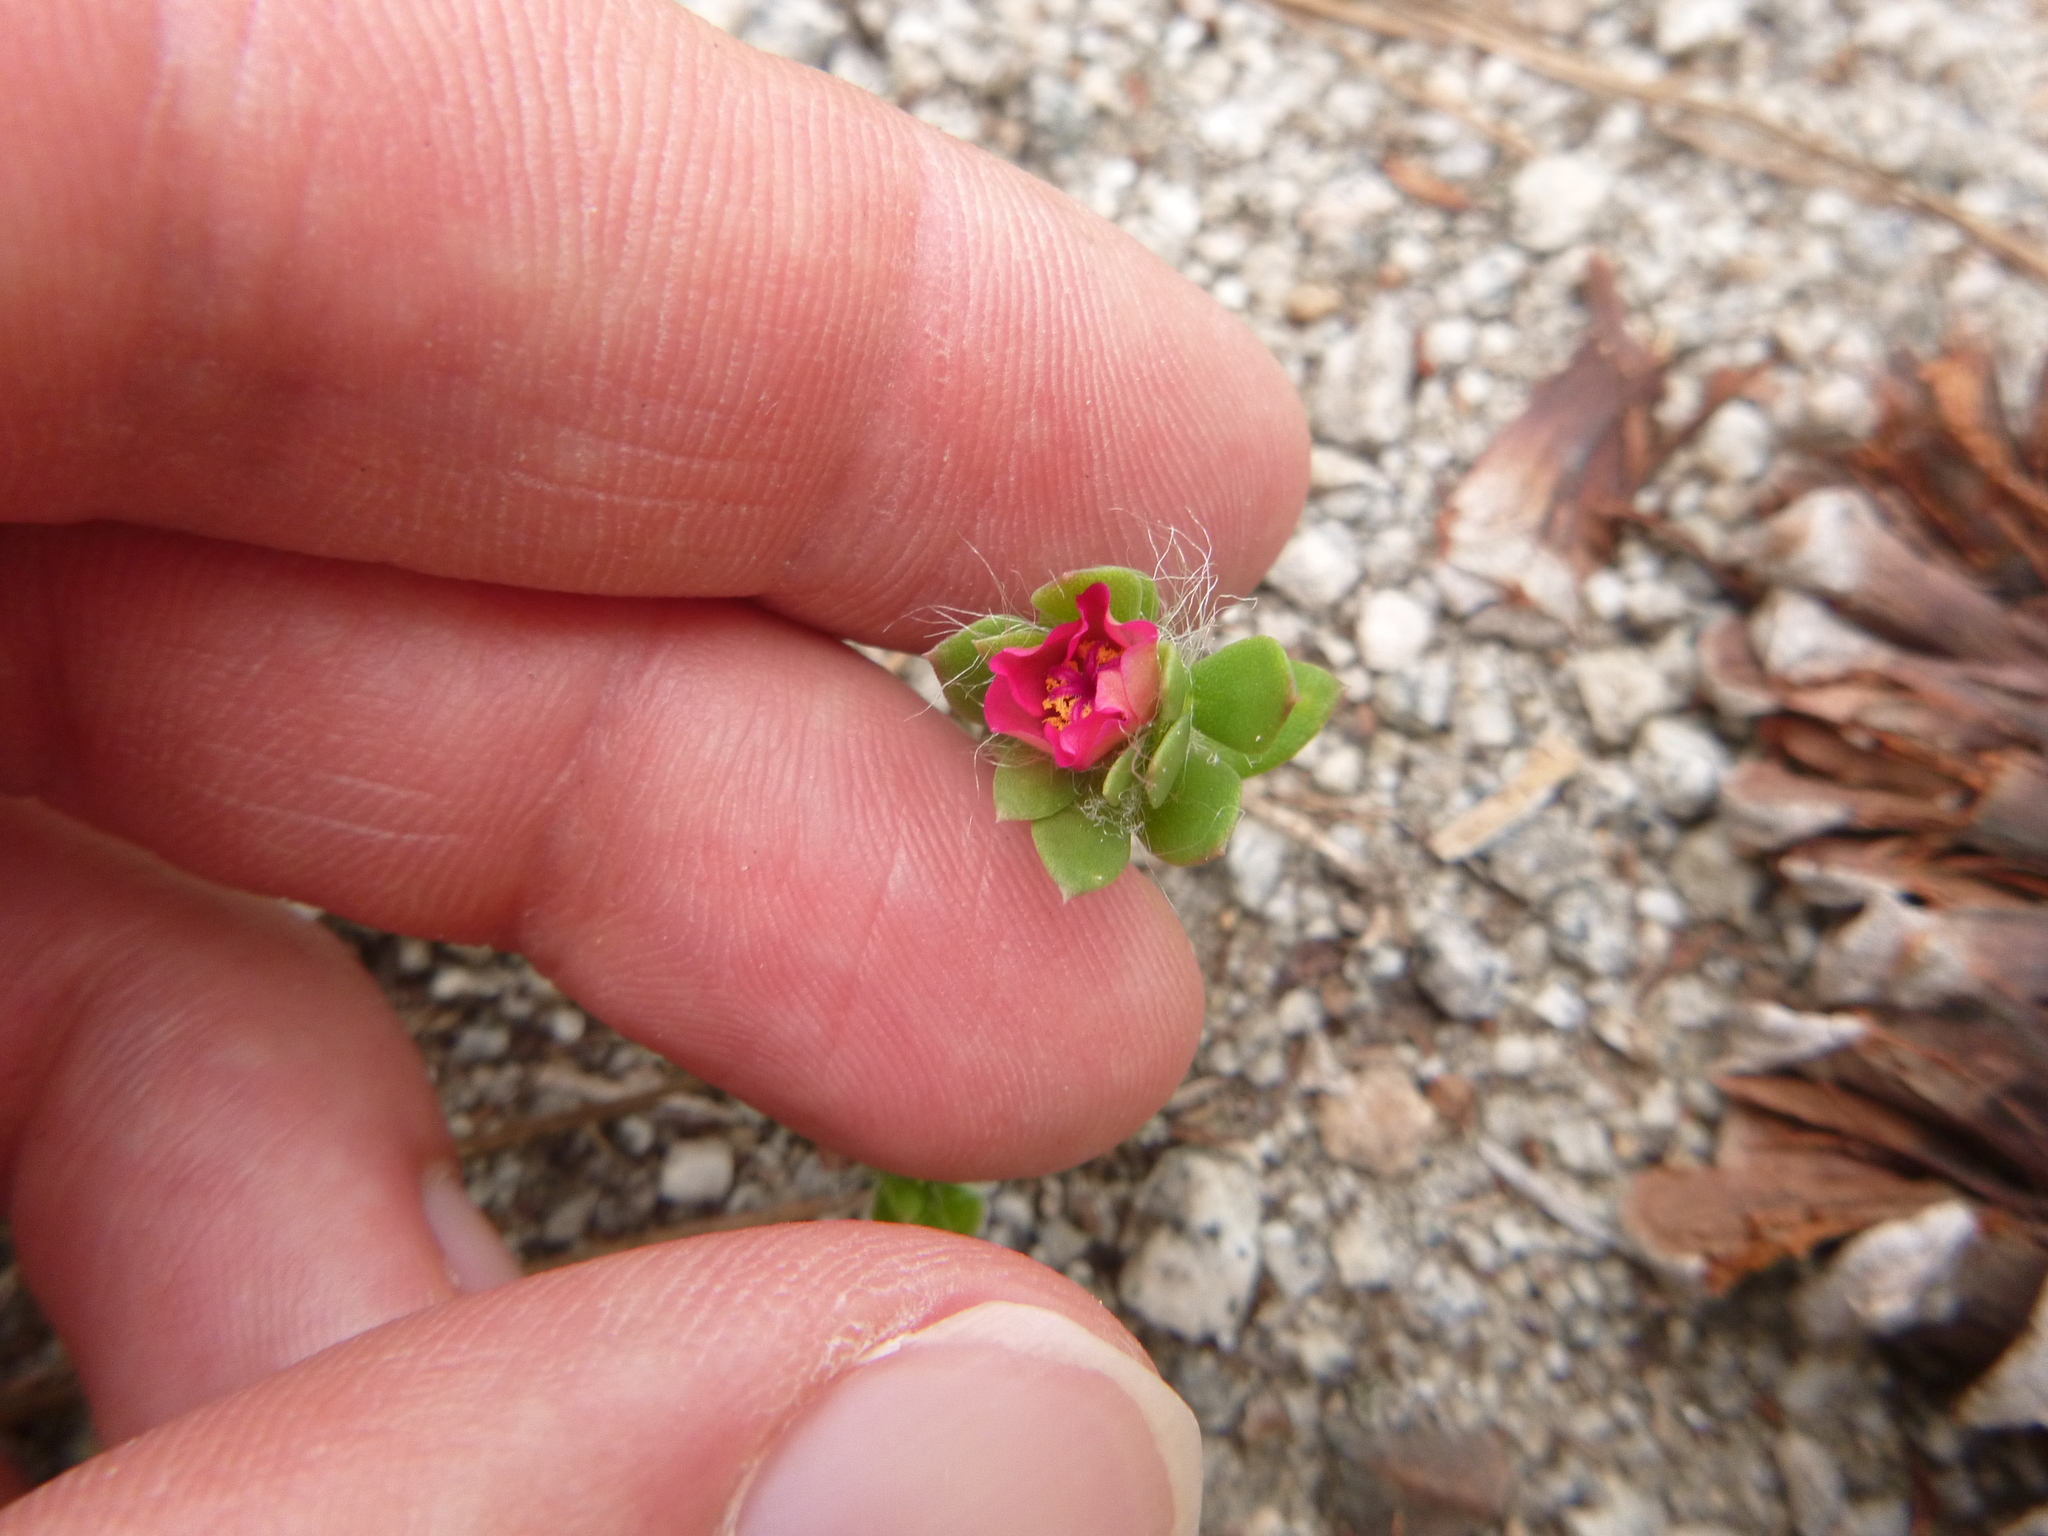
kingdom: Plantae
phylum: Tracheophyta
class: Magnoliopsida
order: Caryophyllales
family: Portulacaceae
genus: Portulaca
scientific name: Portulaca amilis
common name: Paraguayan purslane
